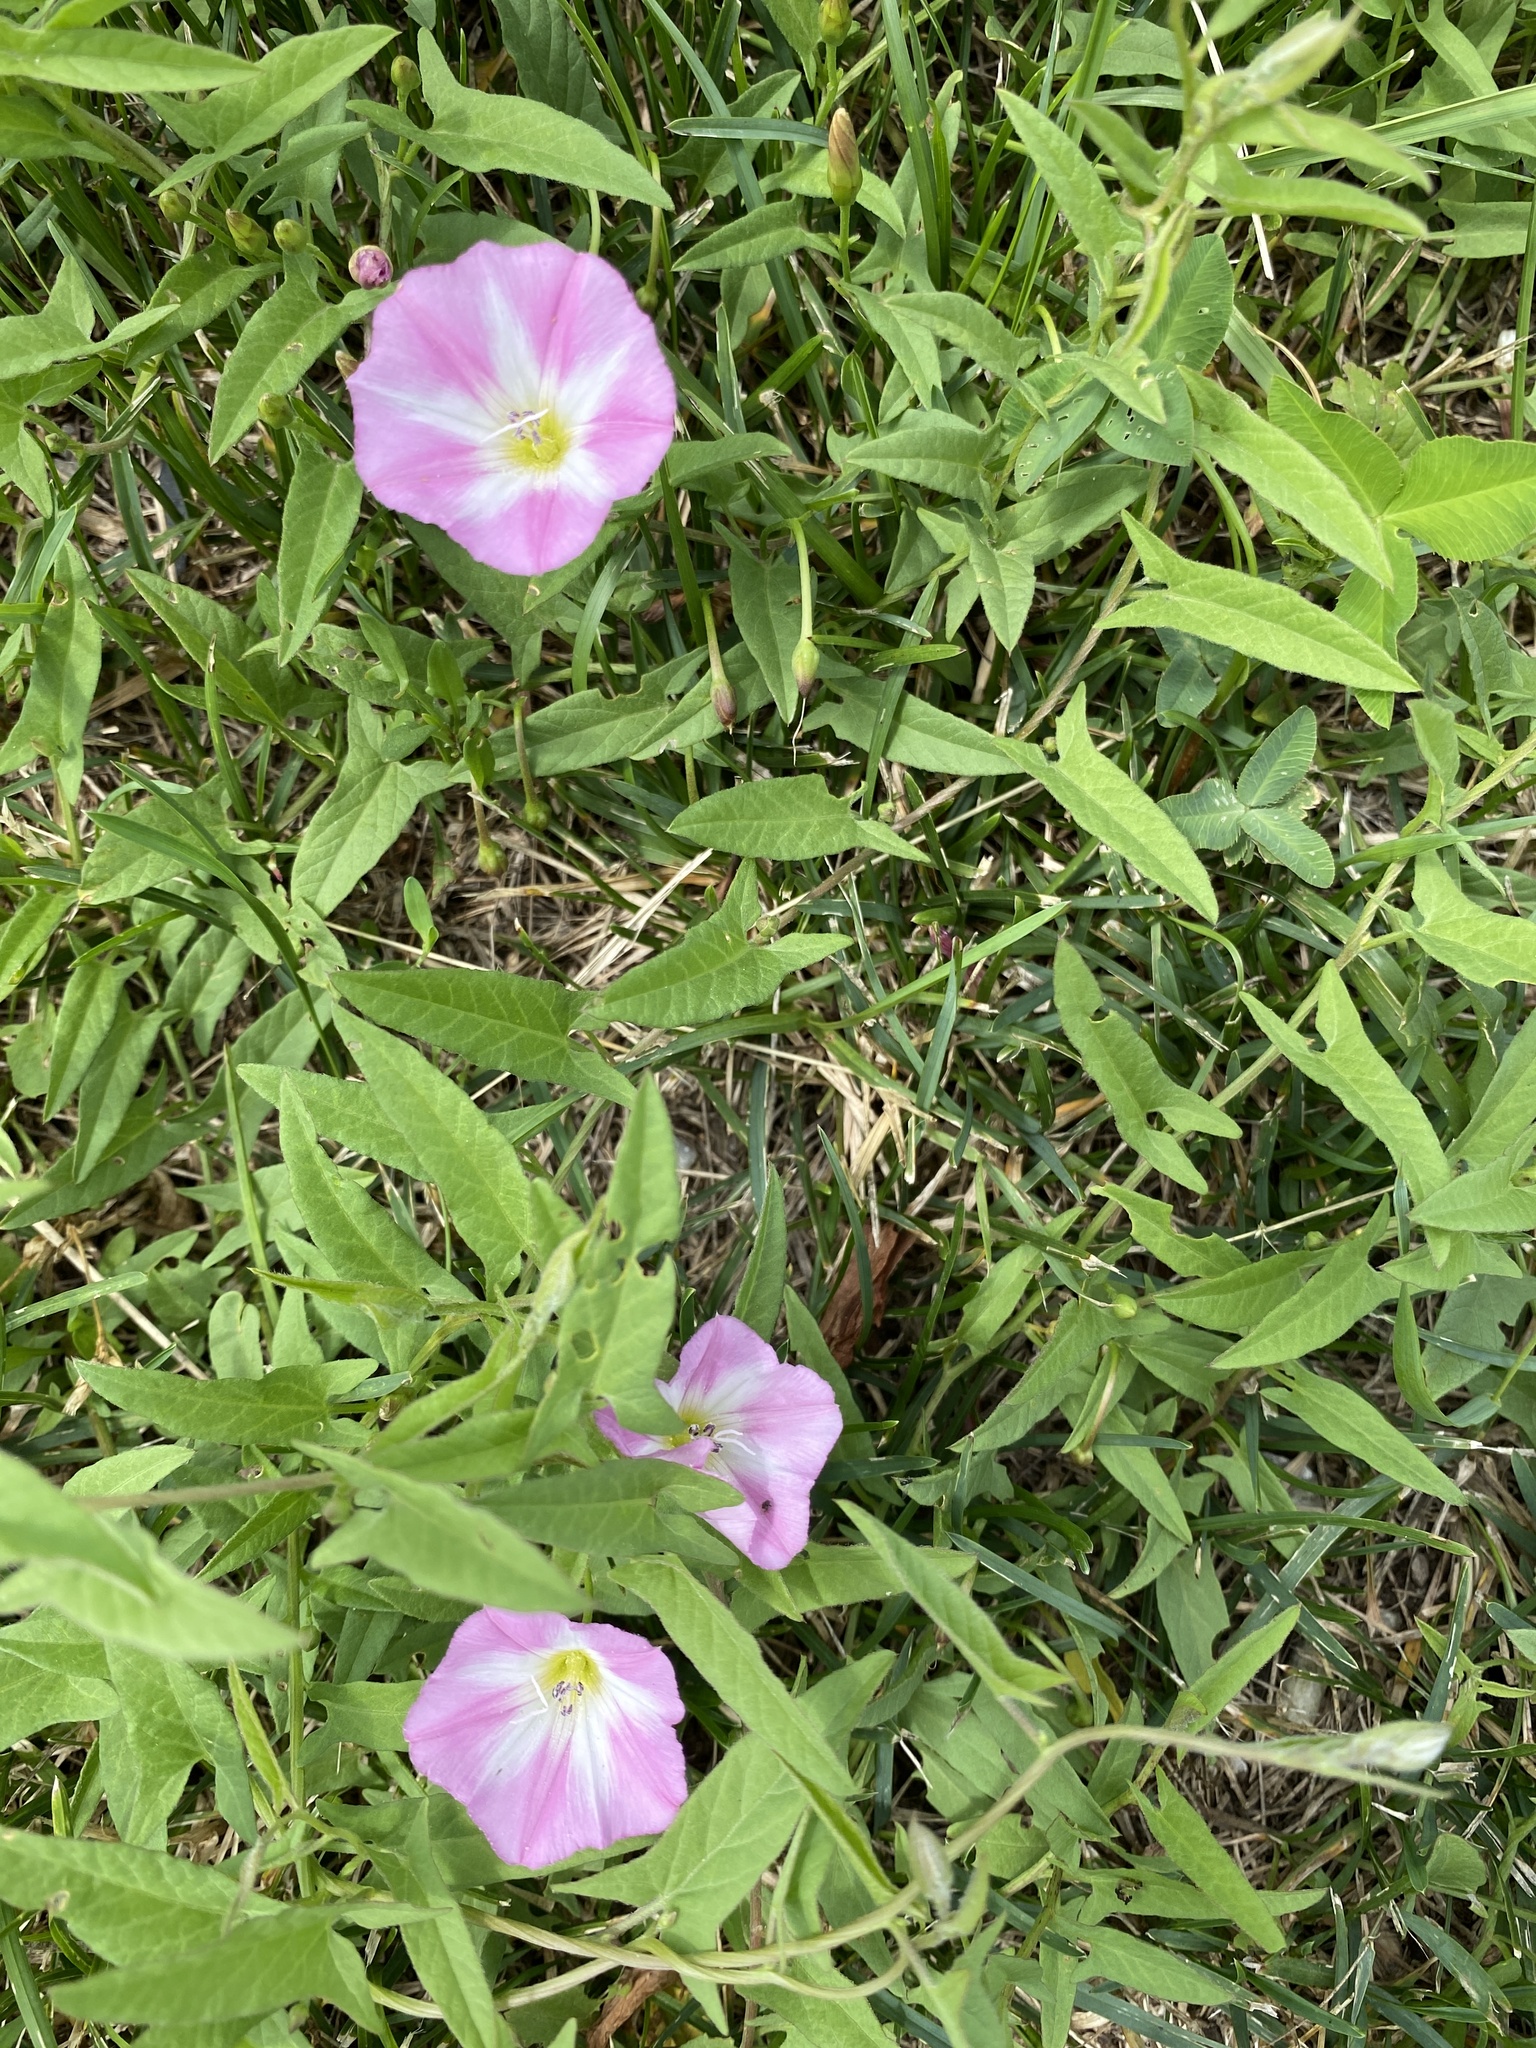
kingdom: Plantae
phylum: Tracheophyta
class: Magnoliopsida
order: Solanales
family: Convolvulaceae
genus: Convolvulus
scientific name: Convolvulus arvensis
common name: Field bindweed
